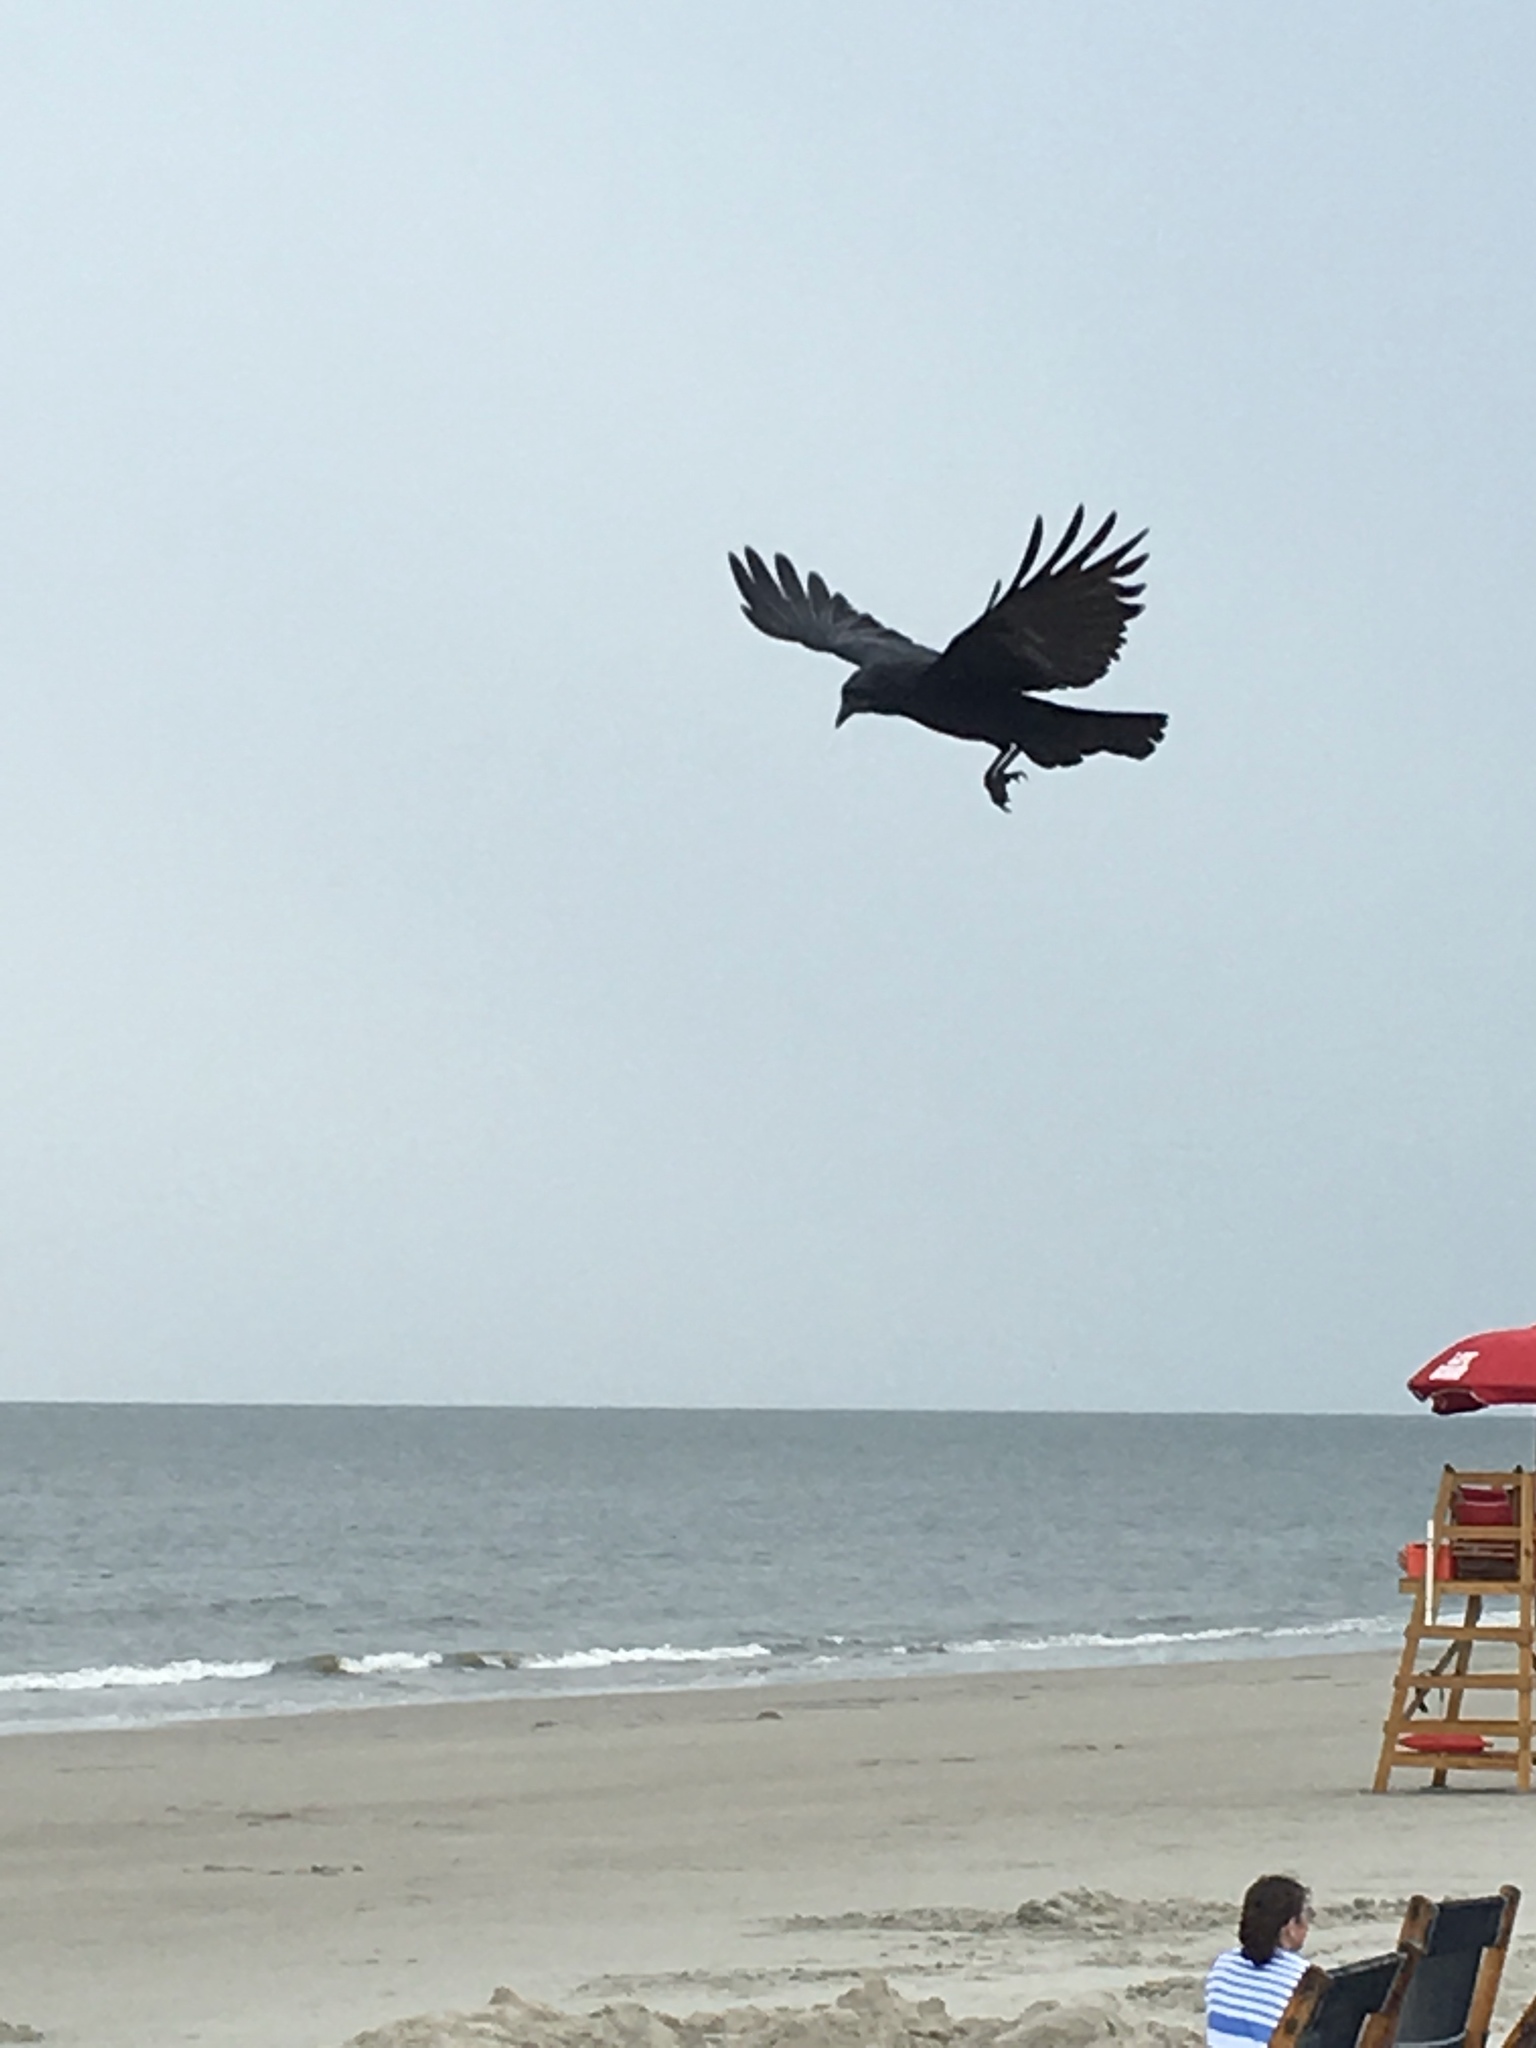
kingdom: Animalia
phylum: Chordata
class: Aves
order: Passeriformes
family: Corvidae
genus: Corvus
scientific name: Corvus
